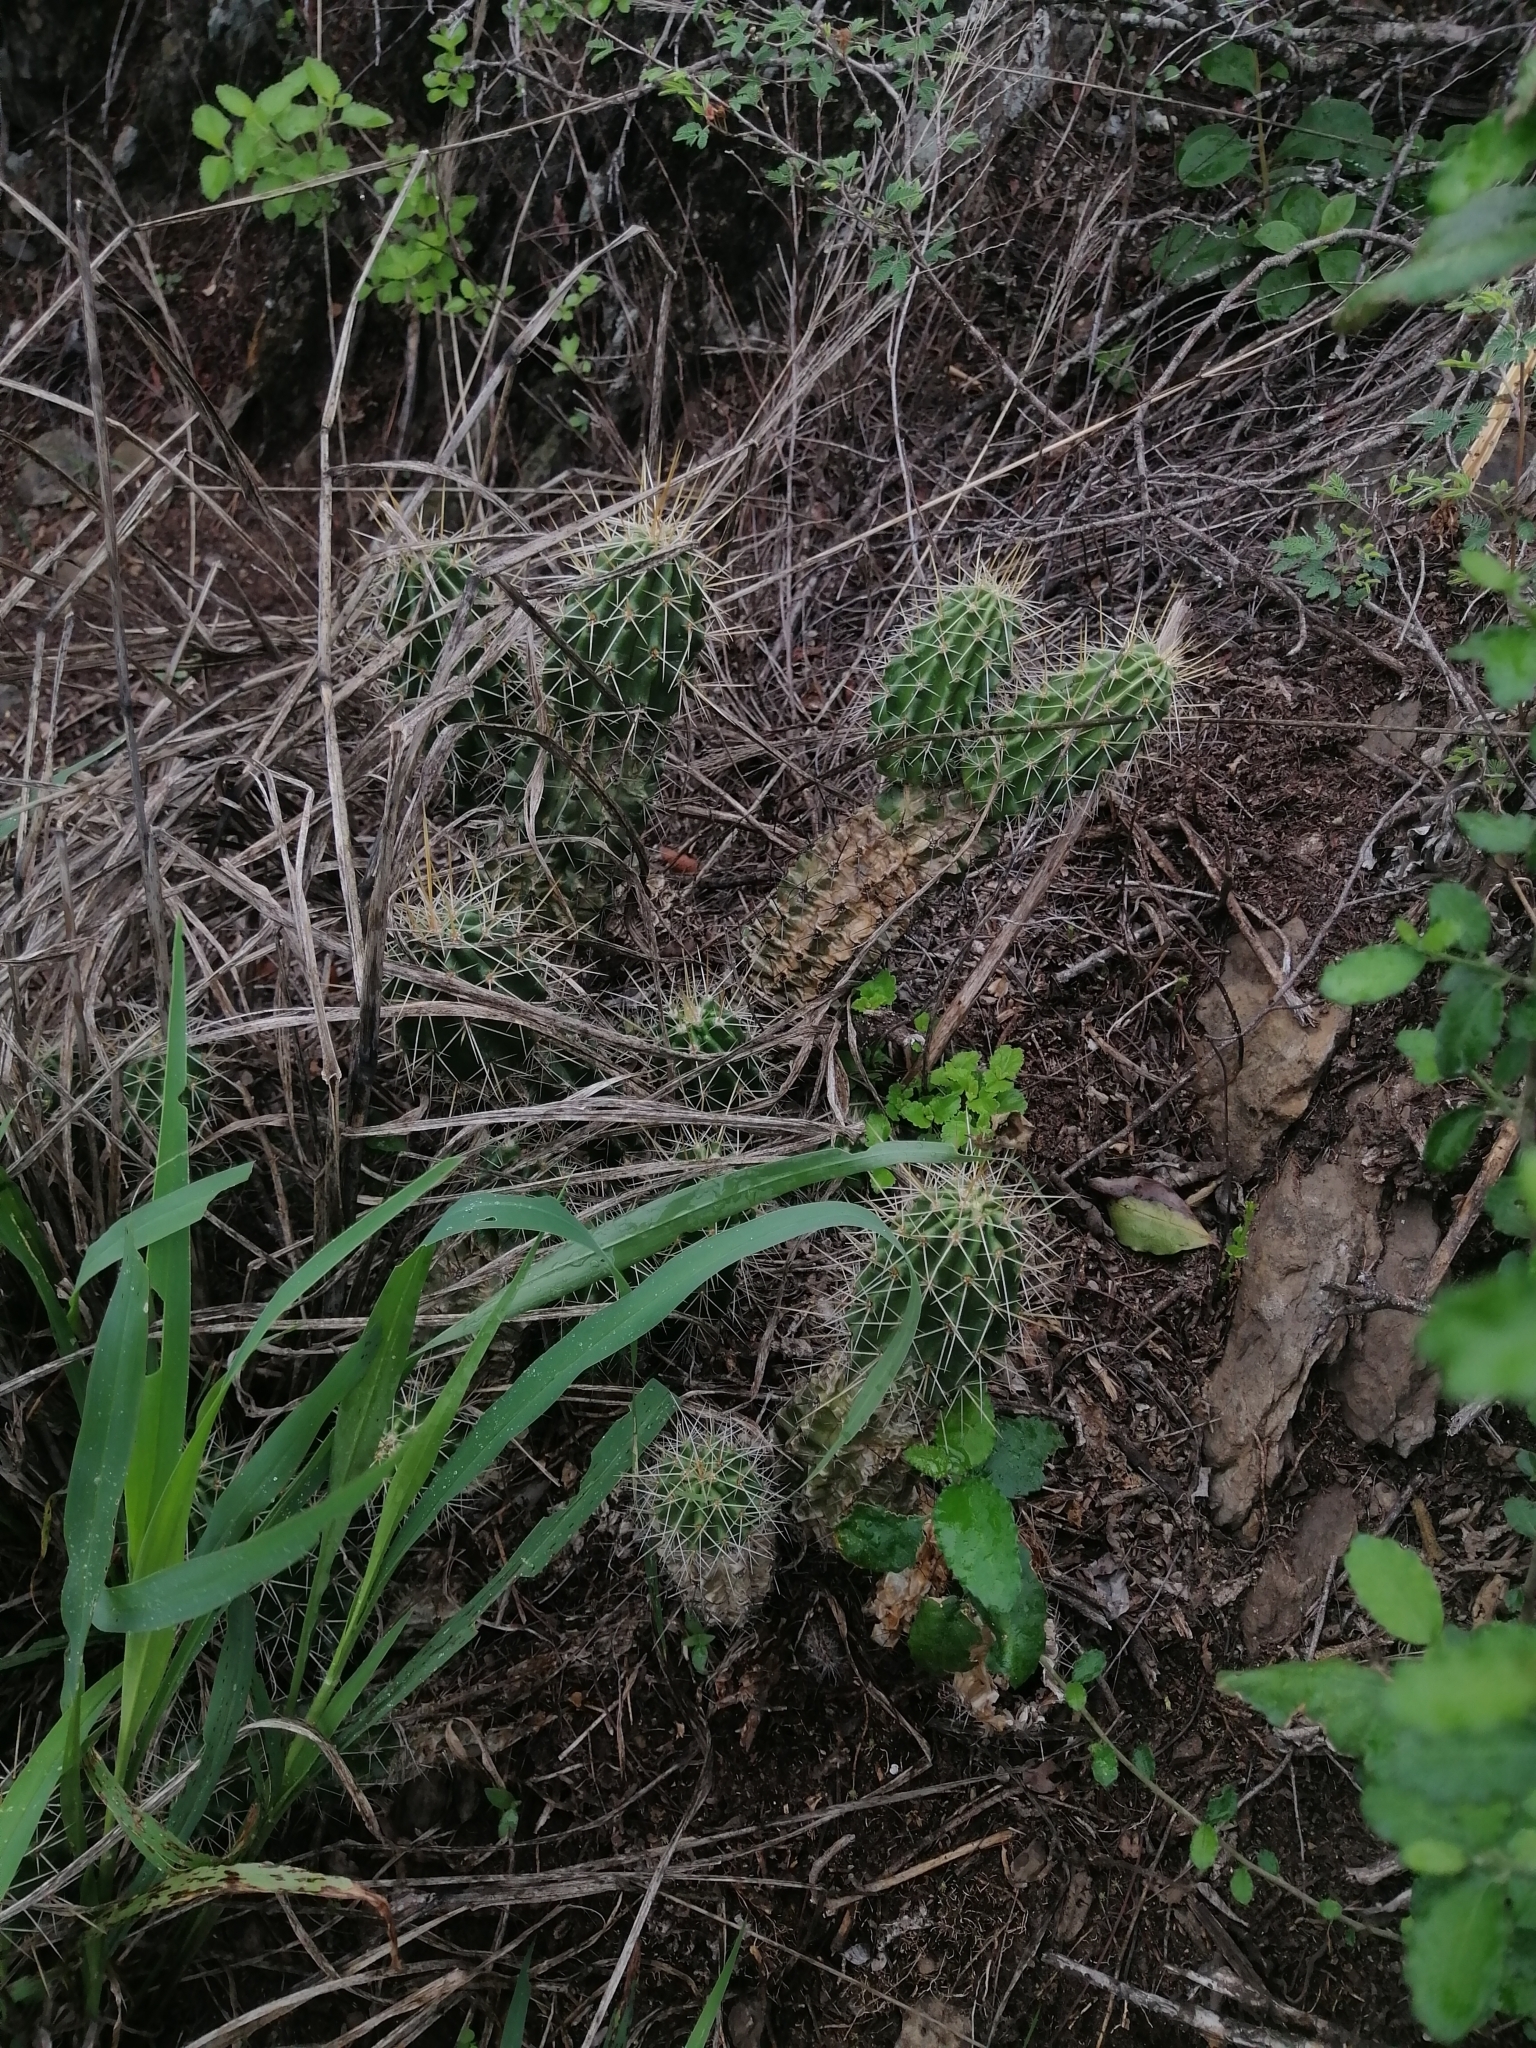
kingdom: Plantae
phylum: Tracheophyta
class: Magnoliopsida
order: Caryophyllales
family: Cactaceae
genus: Echinocereus
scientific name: Echinocereus viereckii
